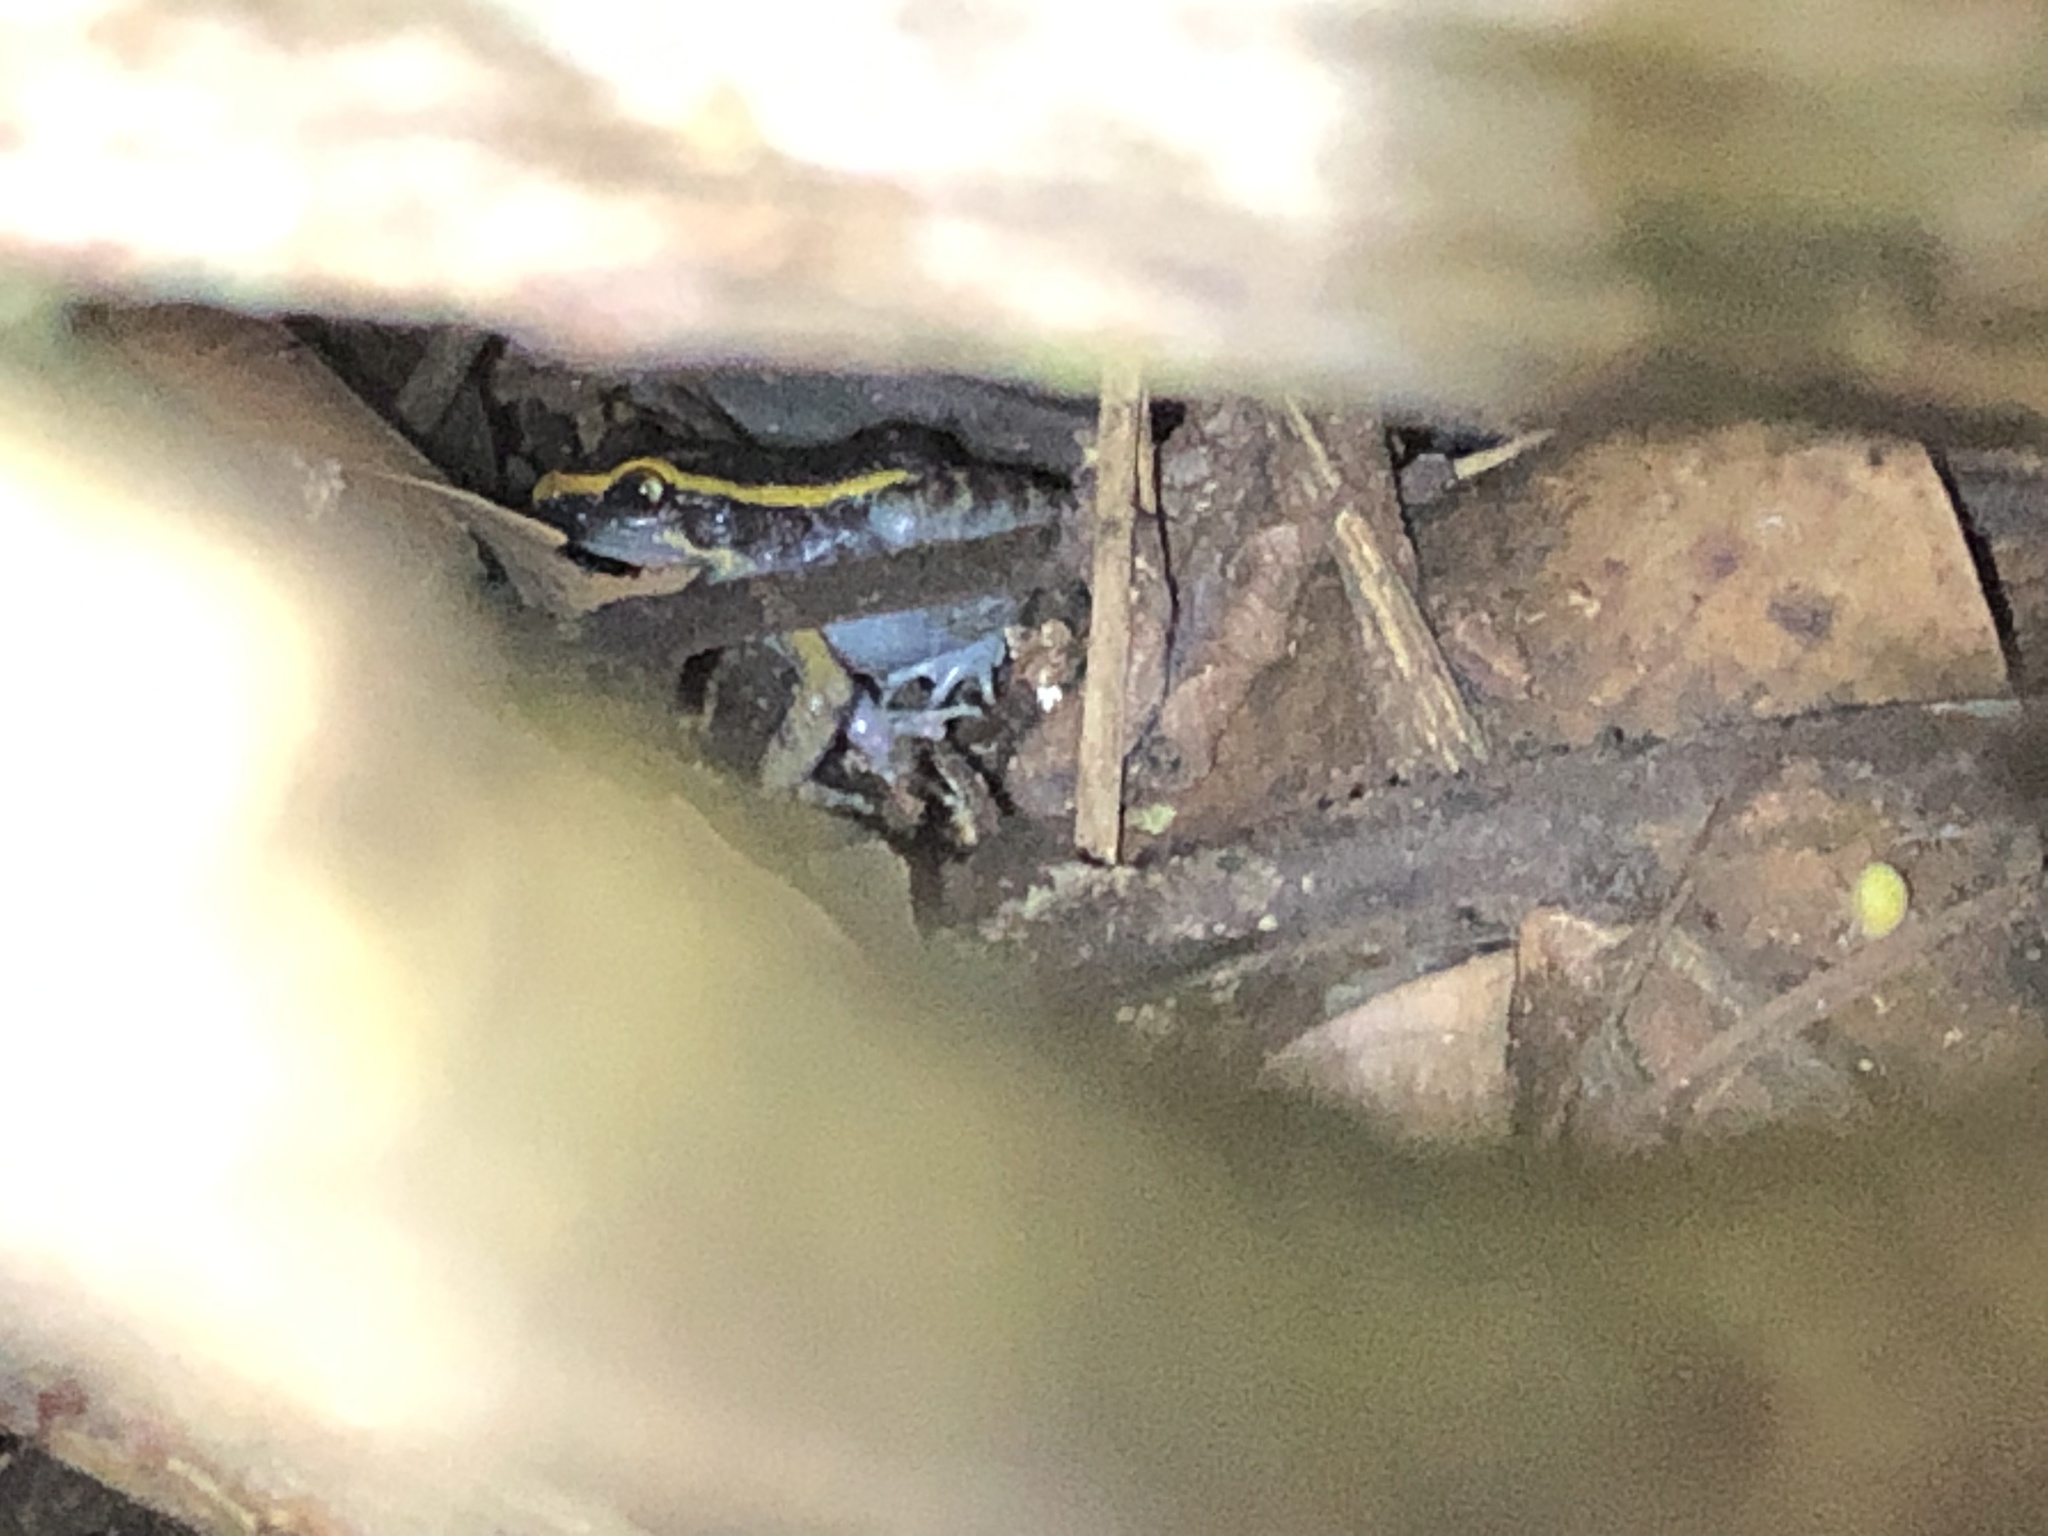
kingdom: Animalia
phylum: Chordata
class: Amphibia
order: Anura
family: Leptodactylidae
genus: Lithodytes
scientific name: Lithodytes lineatus
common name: Gold-striped frog
